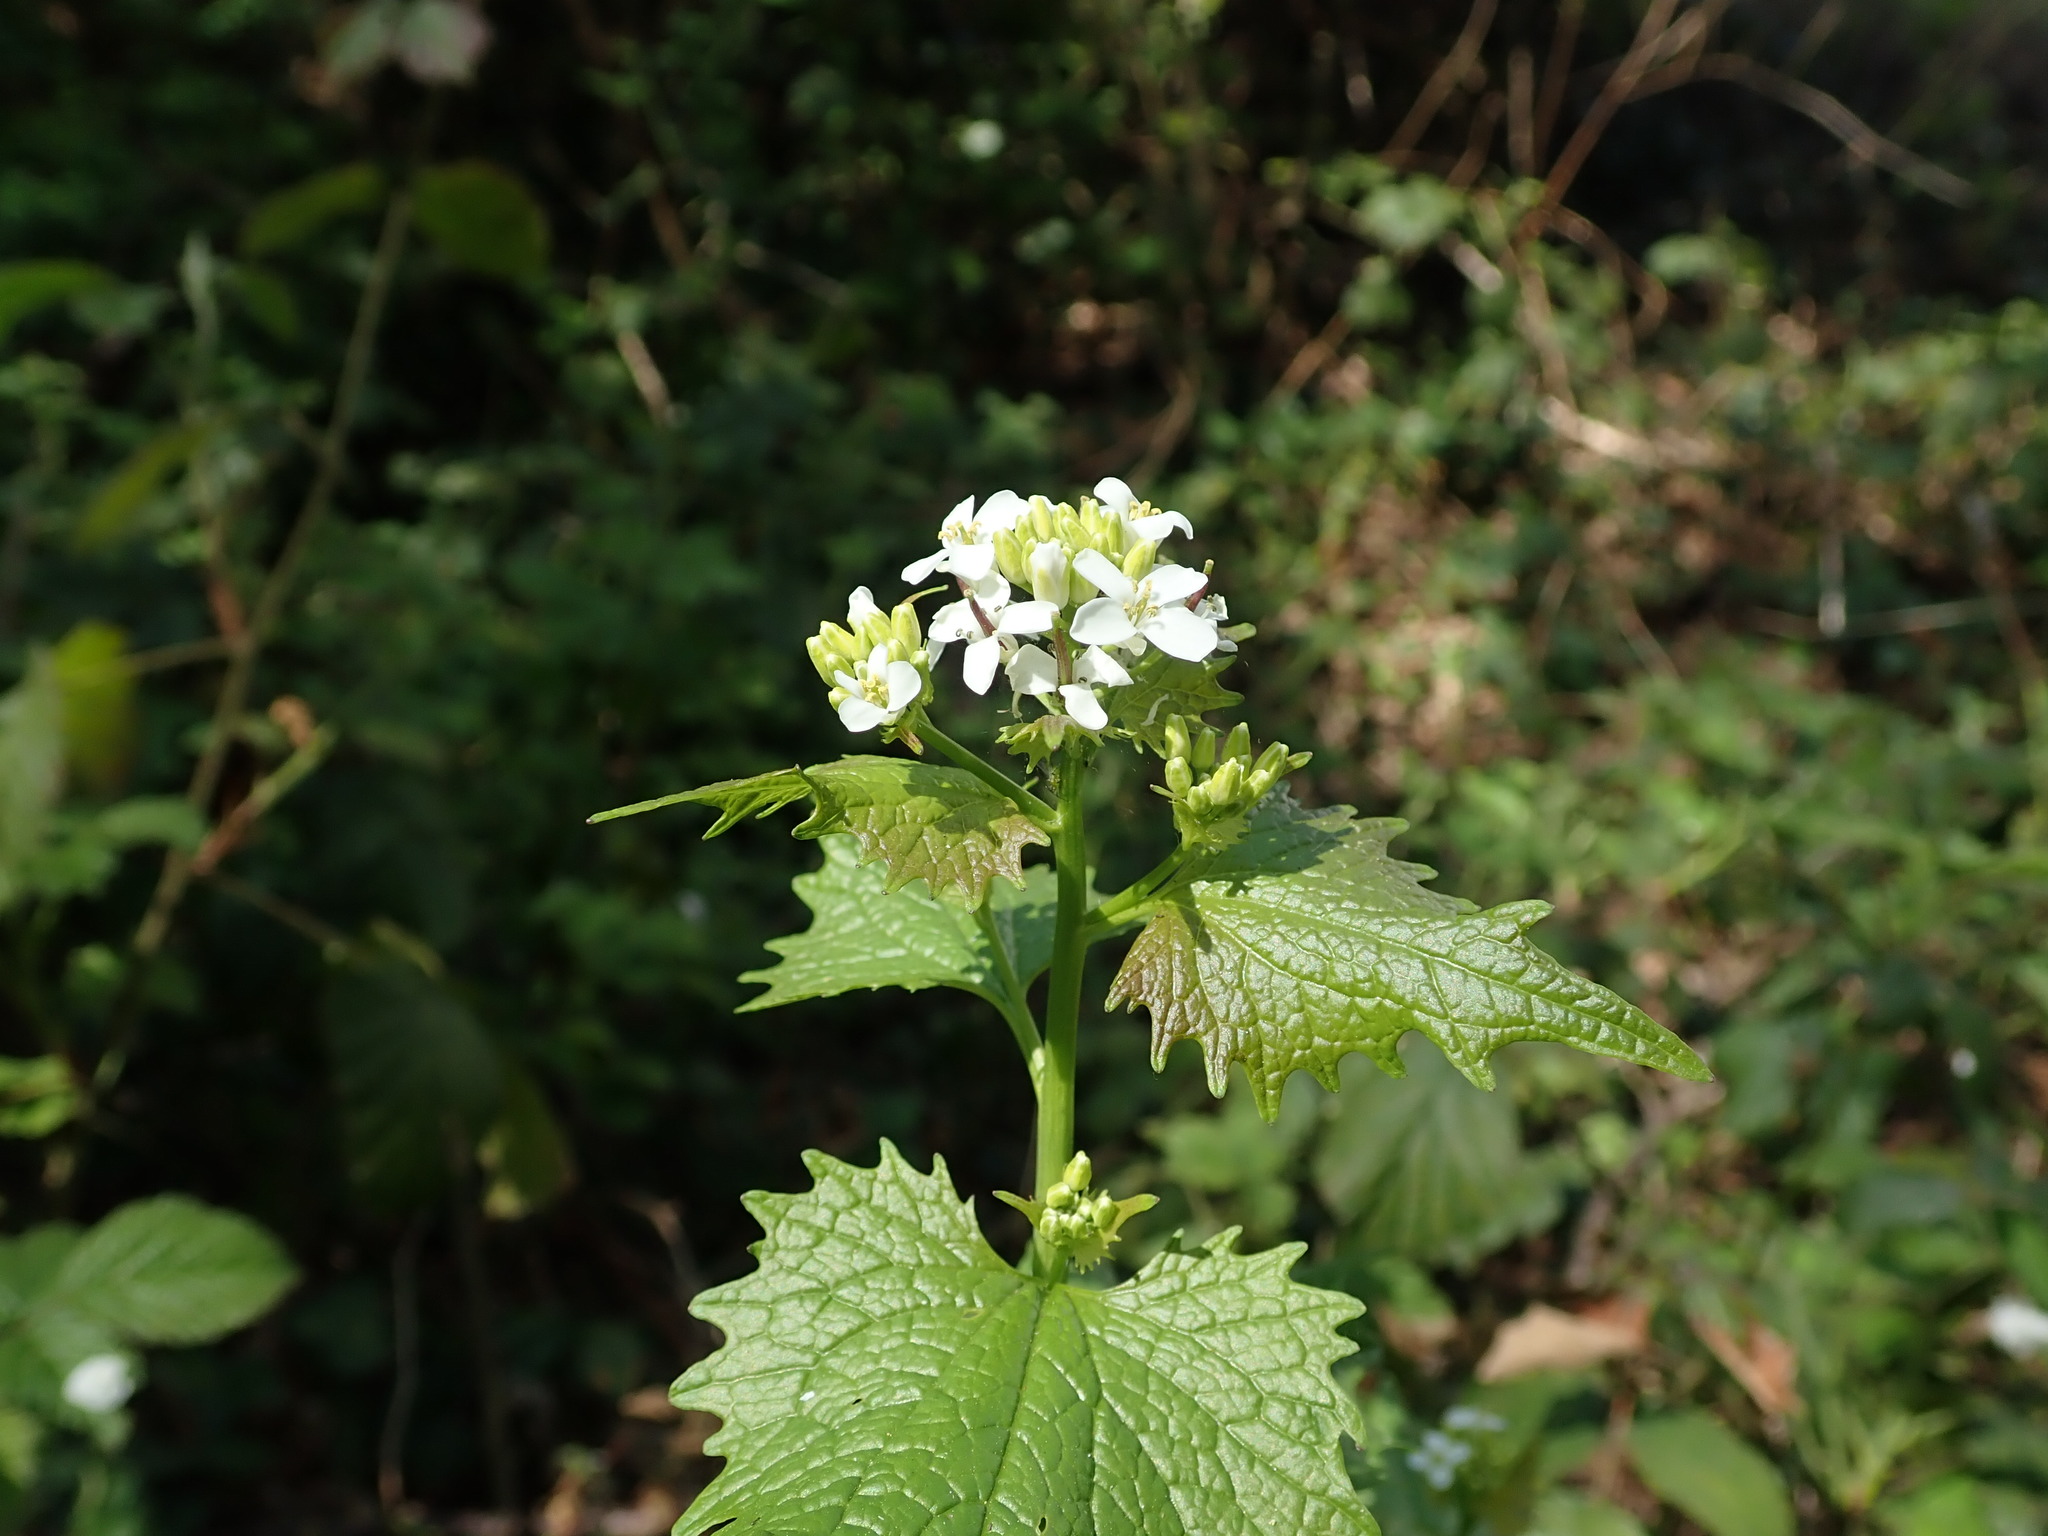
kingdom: Plantae
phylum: Tracheophyta
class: Magnoliopsida
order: Brassicales
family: Brassicaceae
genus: Alliaria
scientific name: Alliaria petiolata
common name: Garlic mustard
